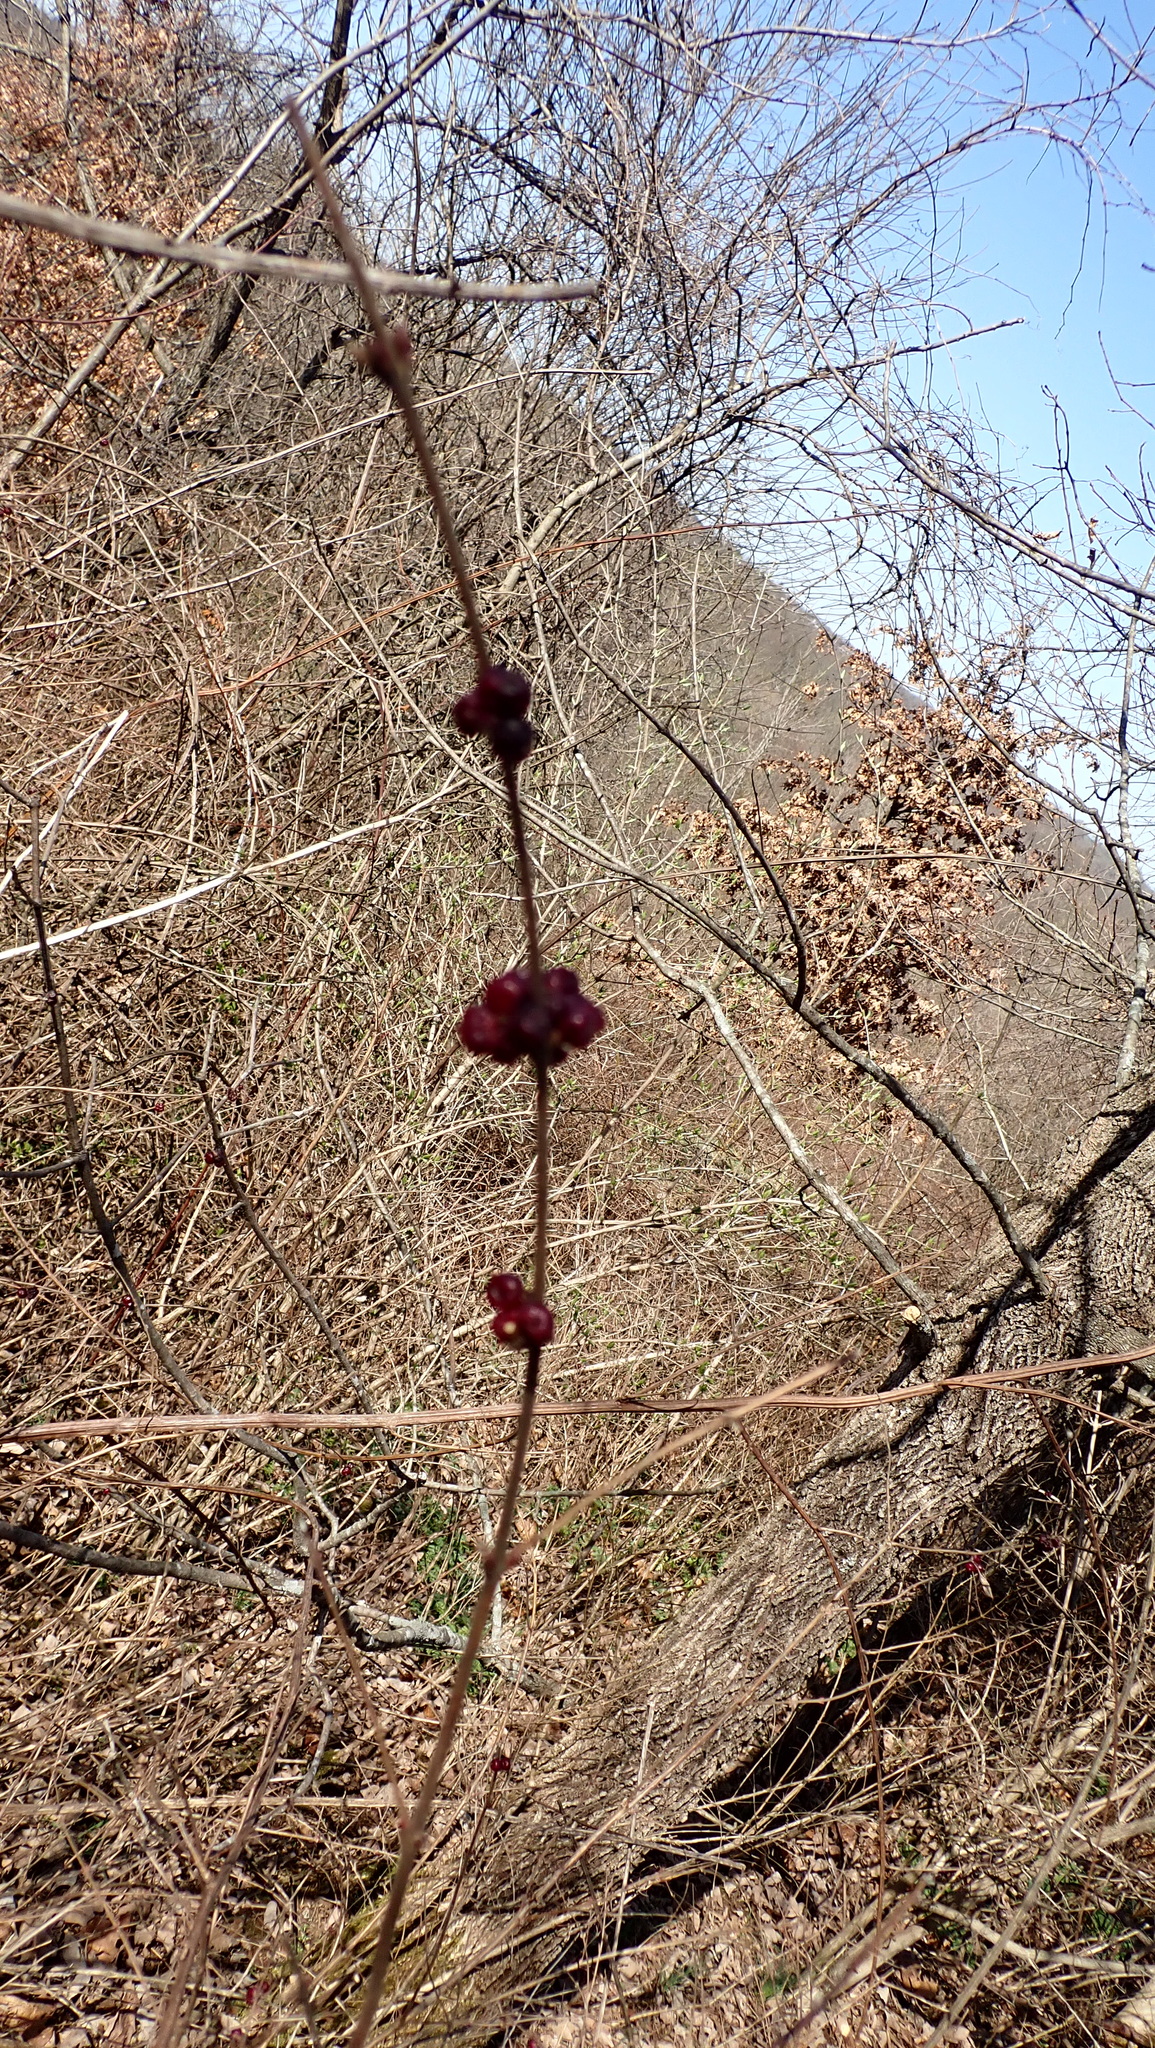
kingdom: Plantae
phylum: Tracheophyta
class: Magnoliopsida
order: Dipsacales
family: Caprifoliaceae
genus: Symphoricarpos
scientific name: Symphoricarpos orbiculatus
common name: Coralberry
